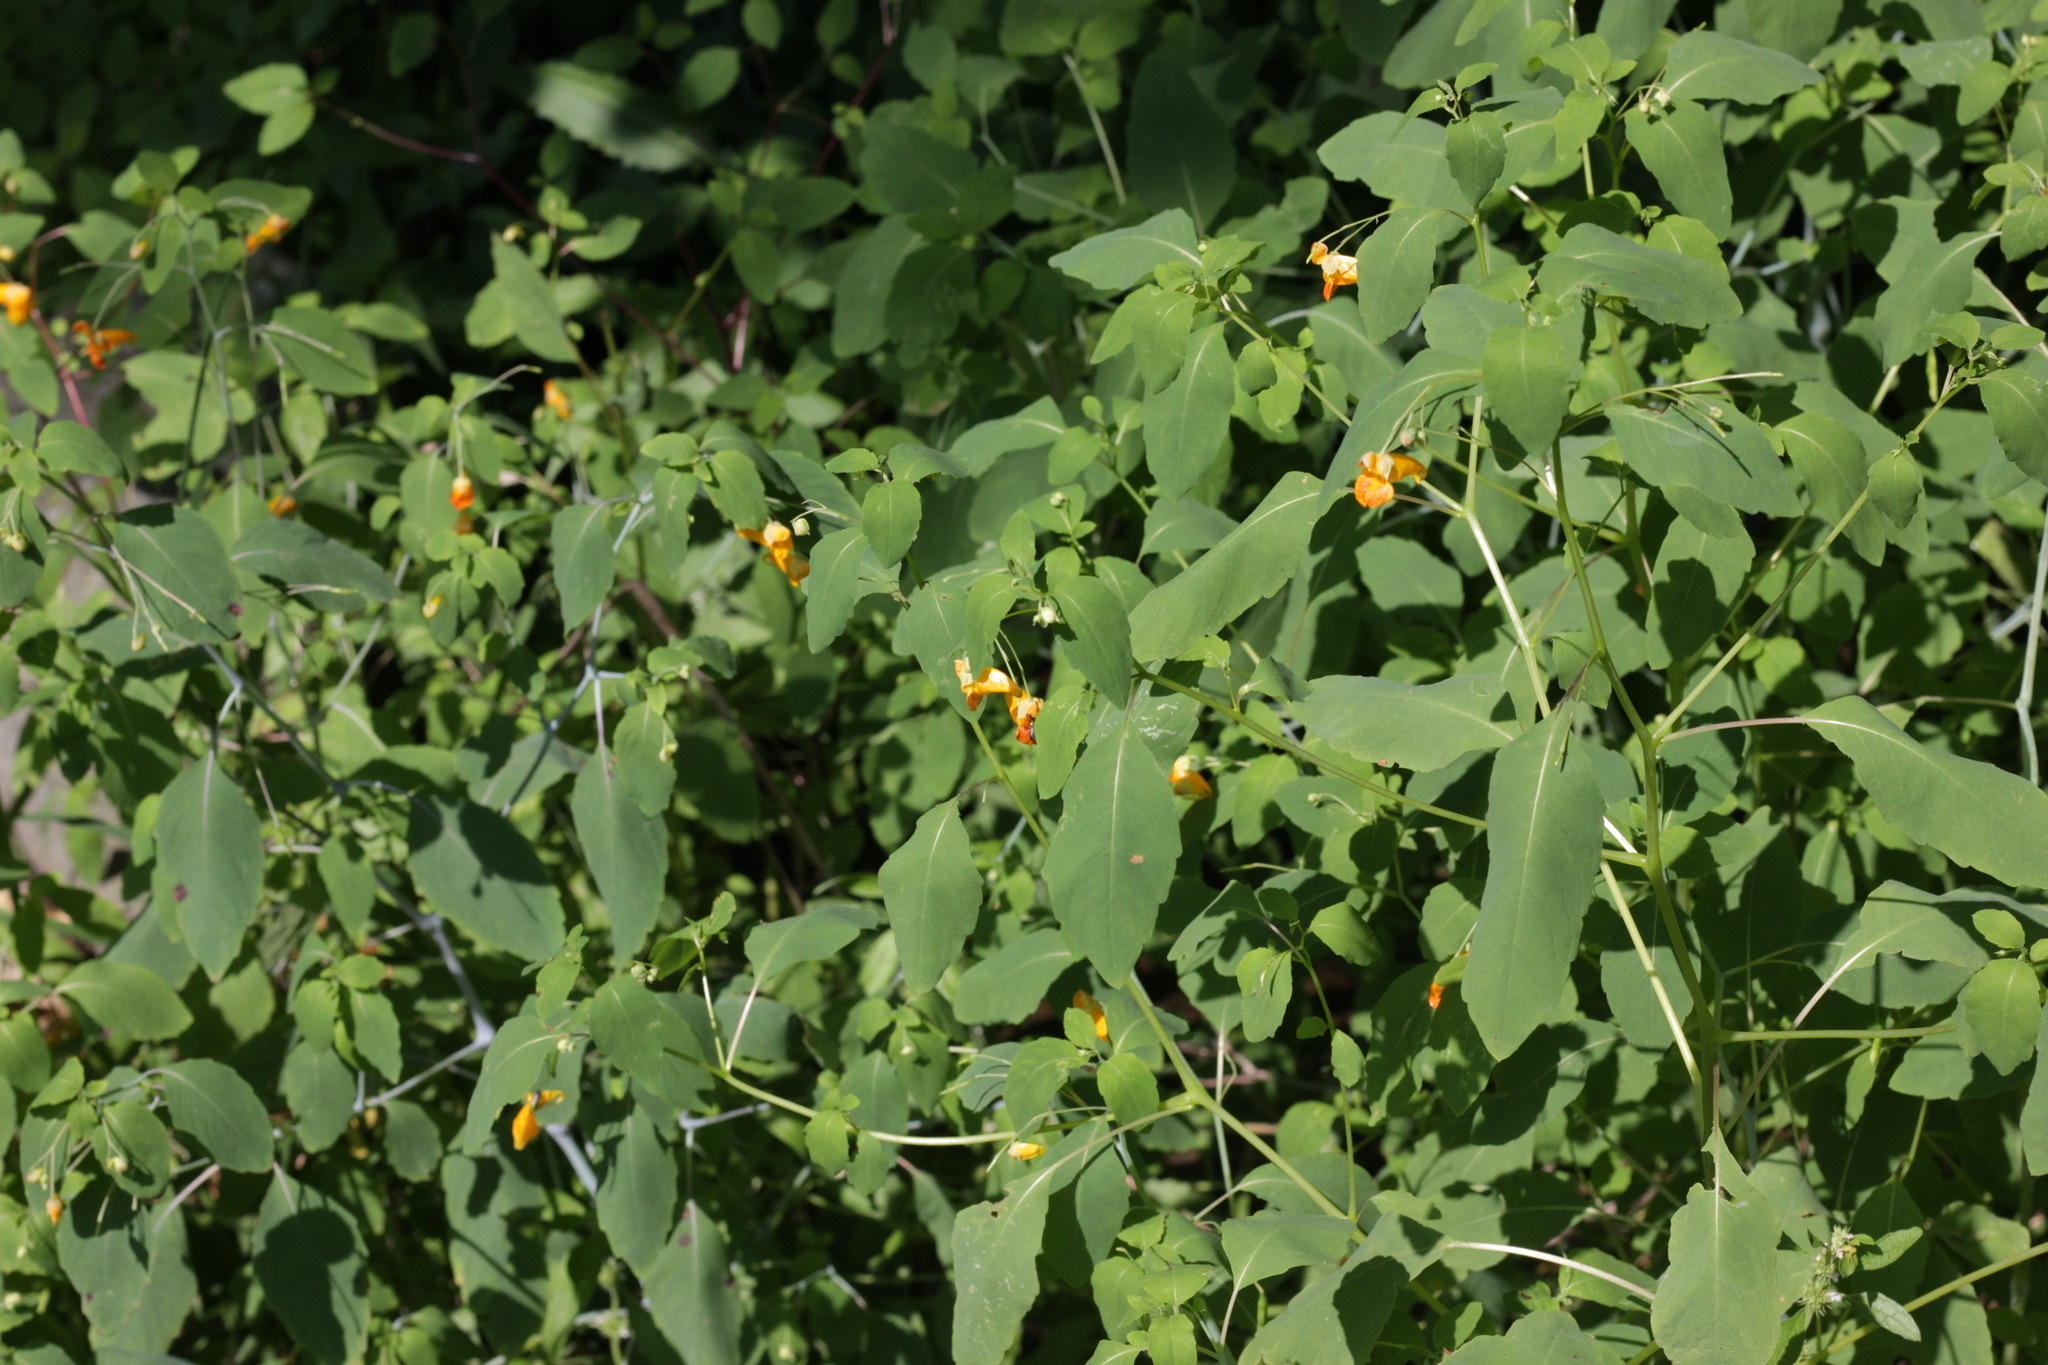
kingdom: Plantae
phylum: Tracheophyta
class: Magnoliopsida
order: Ericales
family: Balsaminaceae
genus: Impatiens
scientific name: Impatiens capensis
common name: Orange balsam
